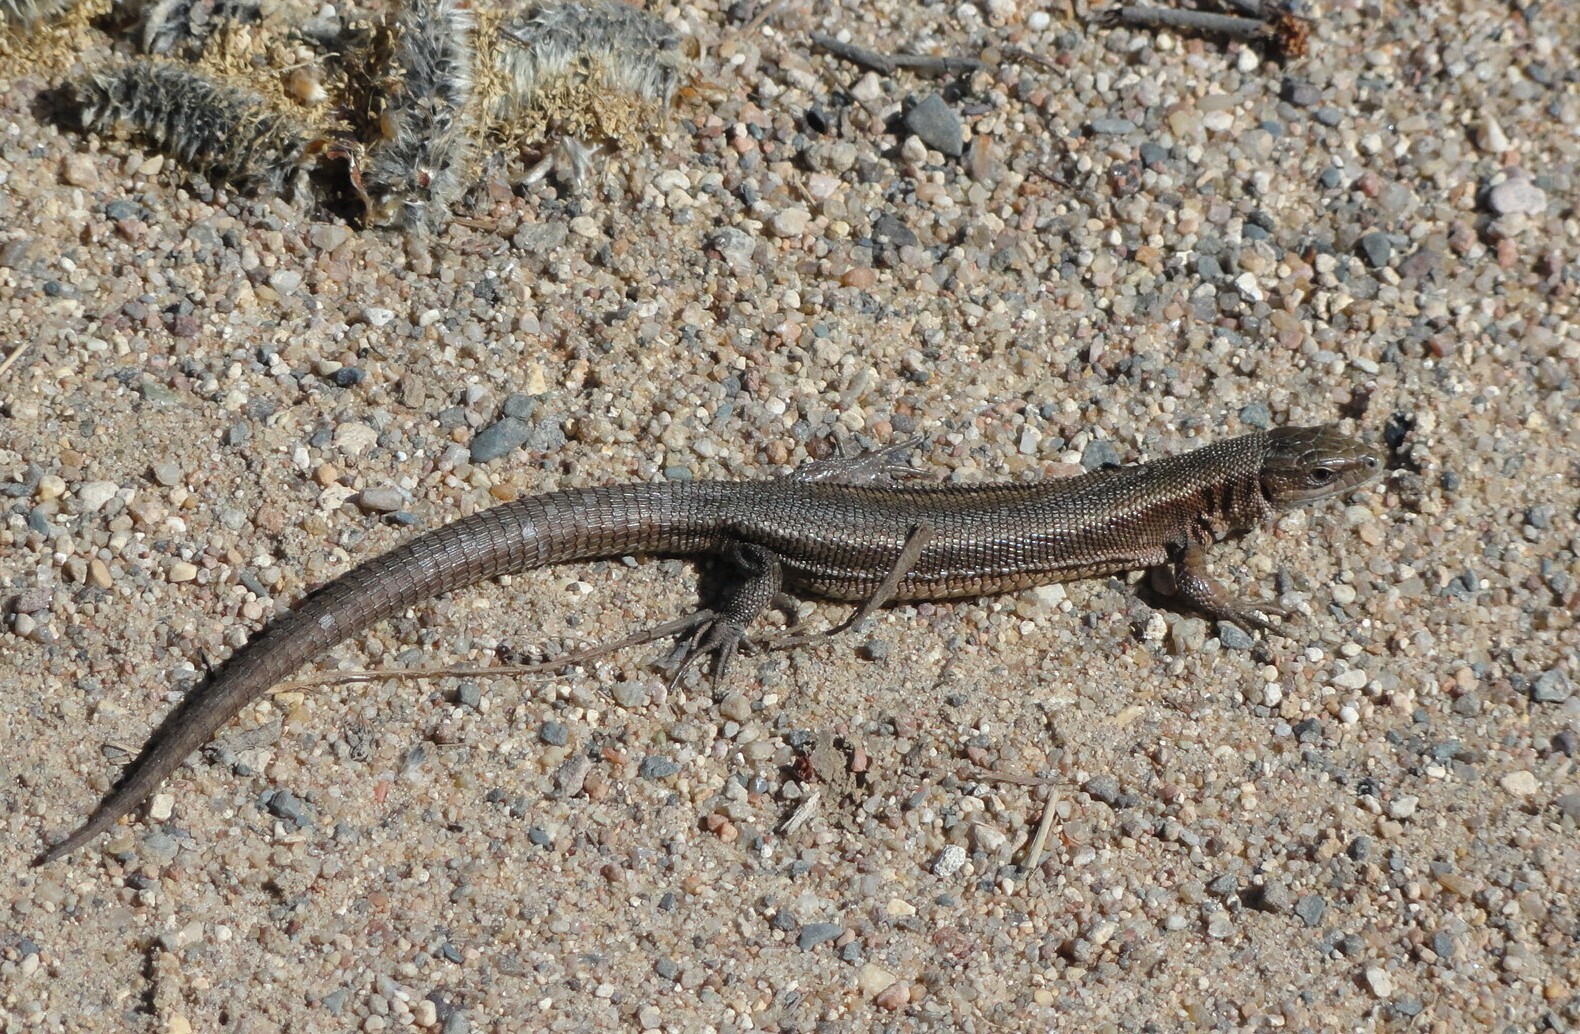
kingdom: Animalia
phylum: Chordata
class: Squamata
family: Lacertidae
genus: Zootoca
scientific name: Zootoca vivipara
